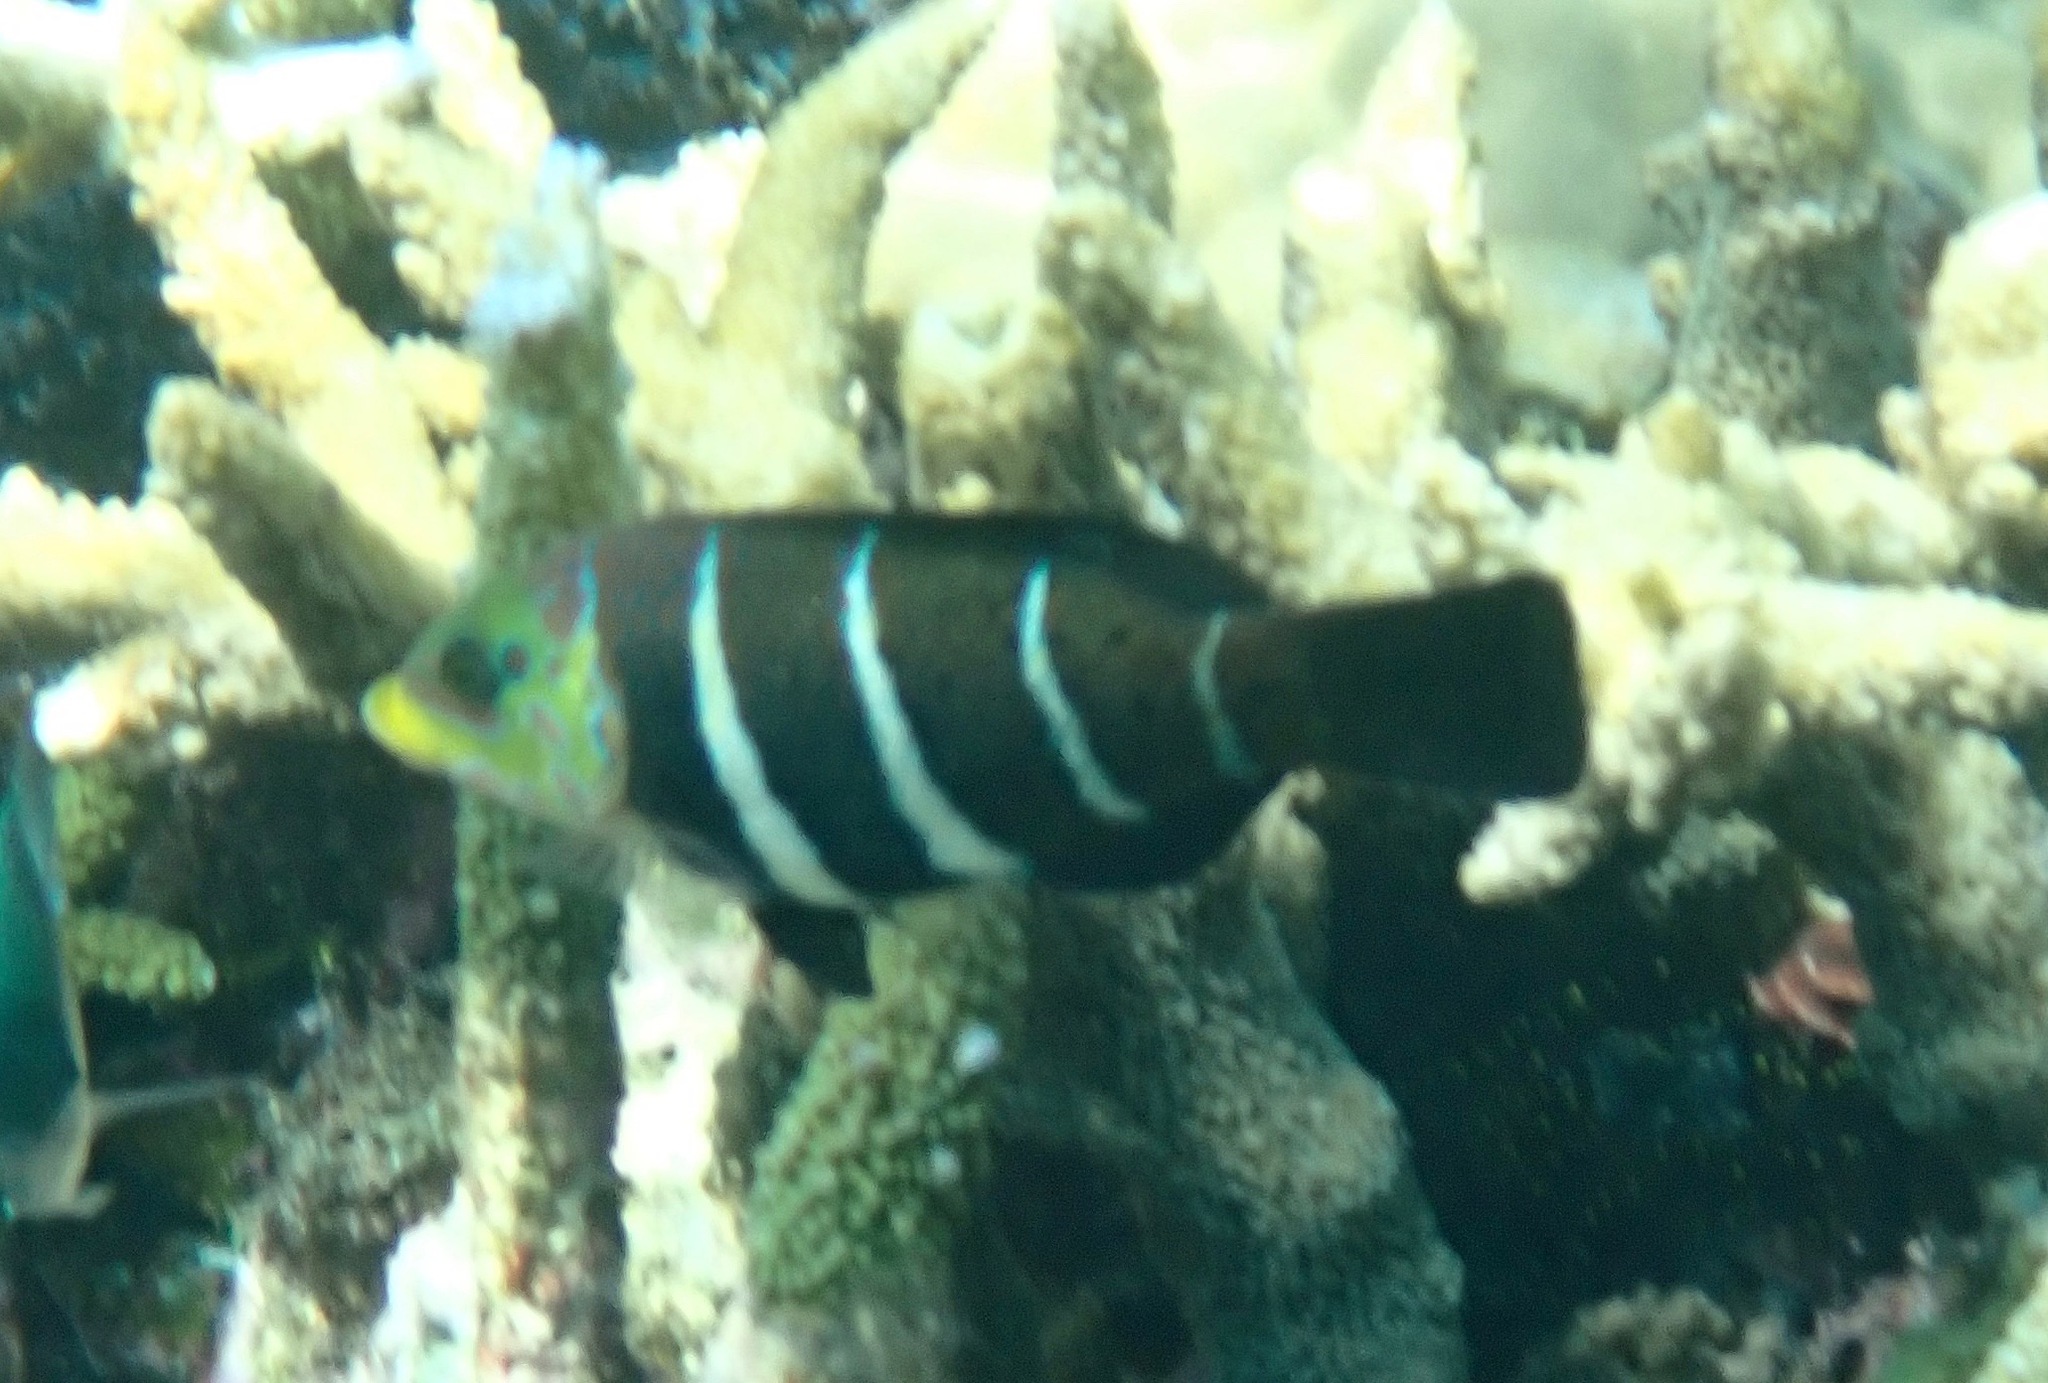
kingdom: Animalia
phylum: Chordata
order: Perciformes
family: Labridae
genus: Hemigymnus
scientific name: Hemigymnus fasciatus
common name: Barred thicklip
